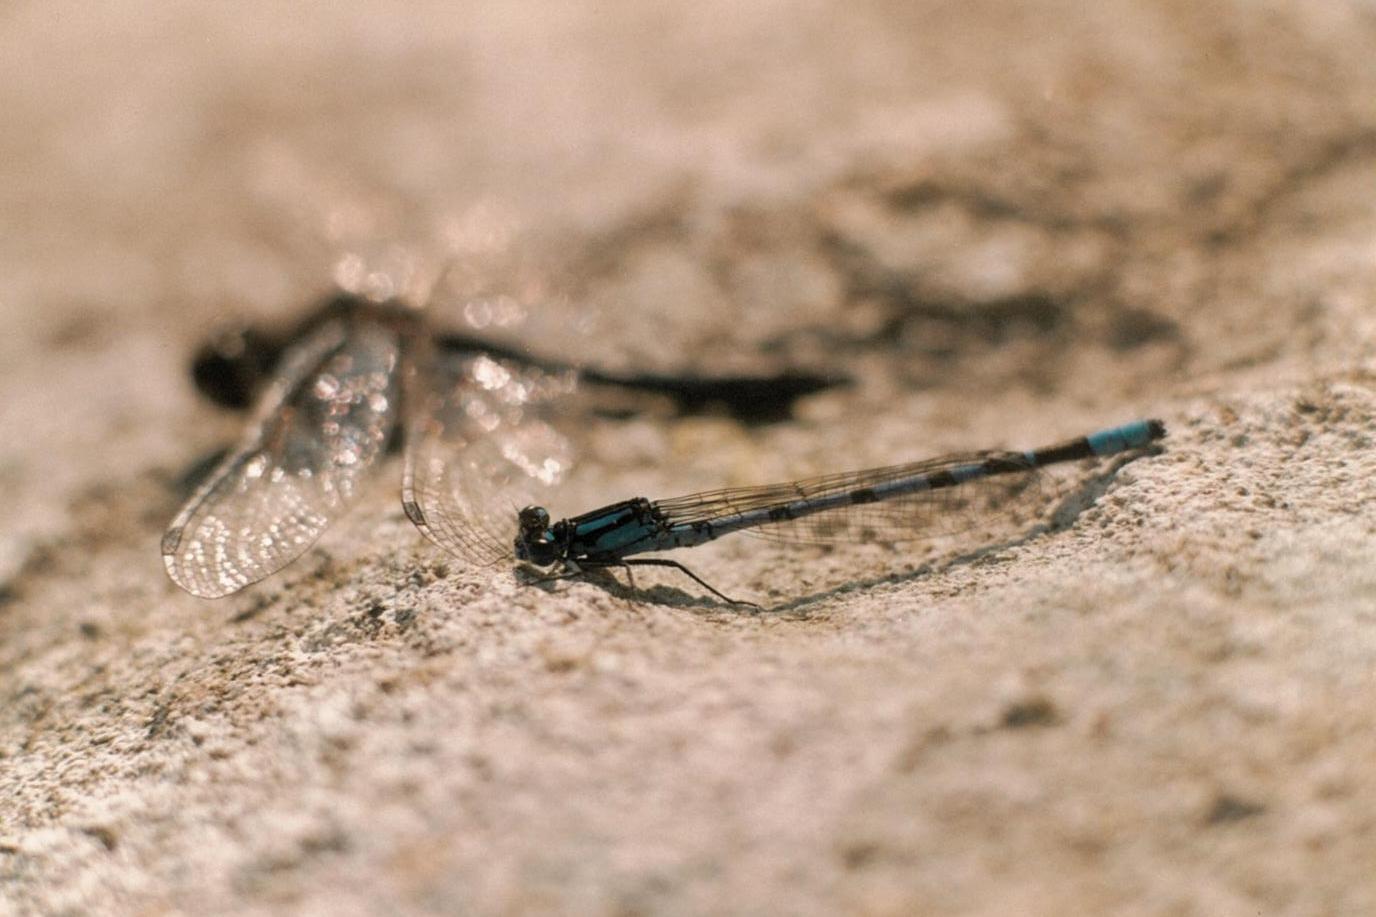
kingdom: Animalia
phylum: Arthropoda
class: Insecta
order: Odonata
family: Coenagrionidae
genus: Enallagma
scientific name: Enallagma cyathigerum
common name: Common blue damselfly
